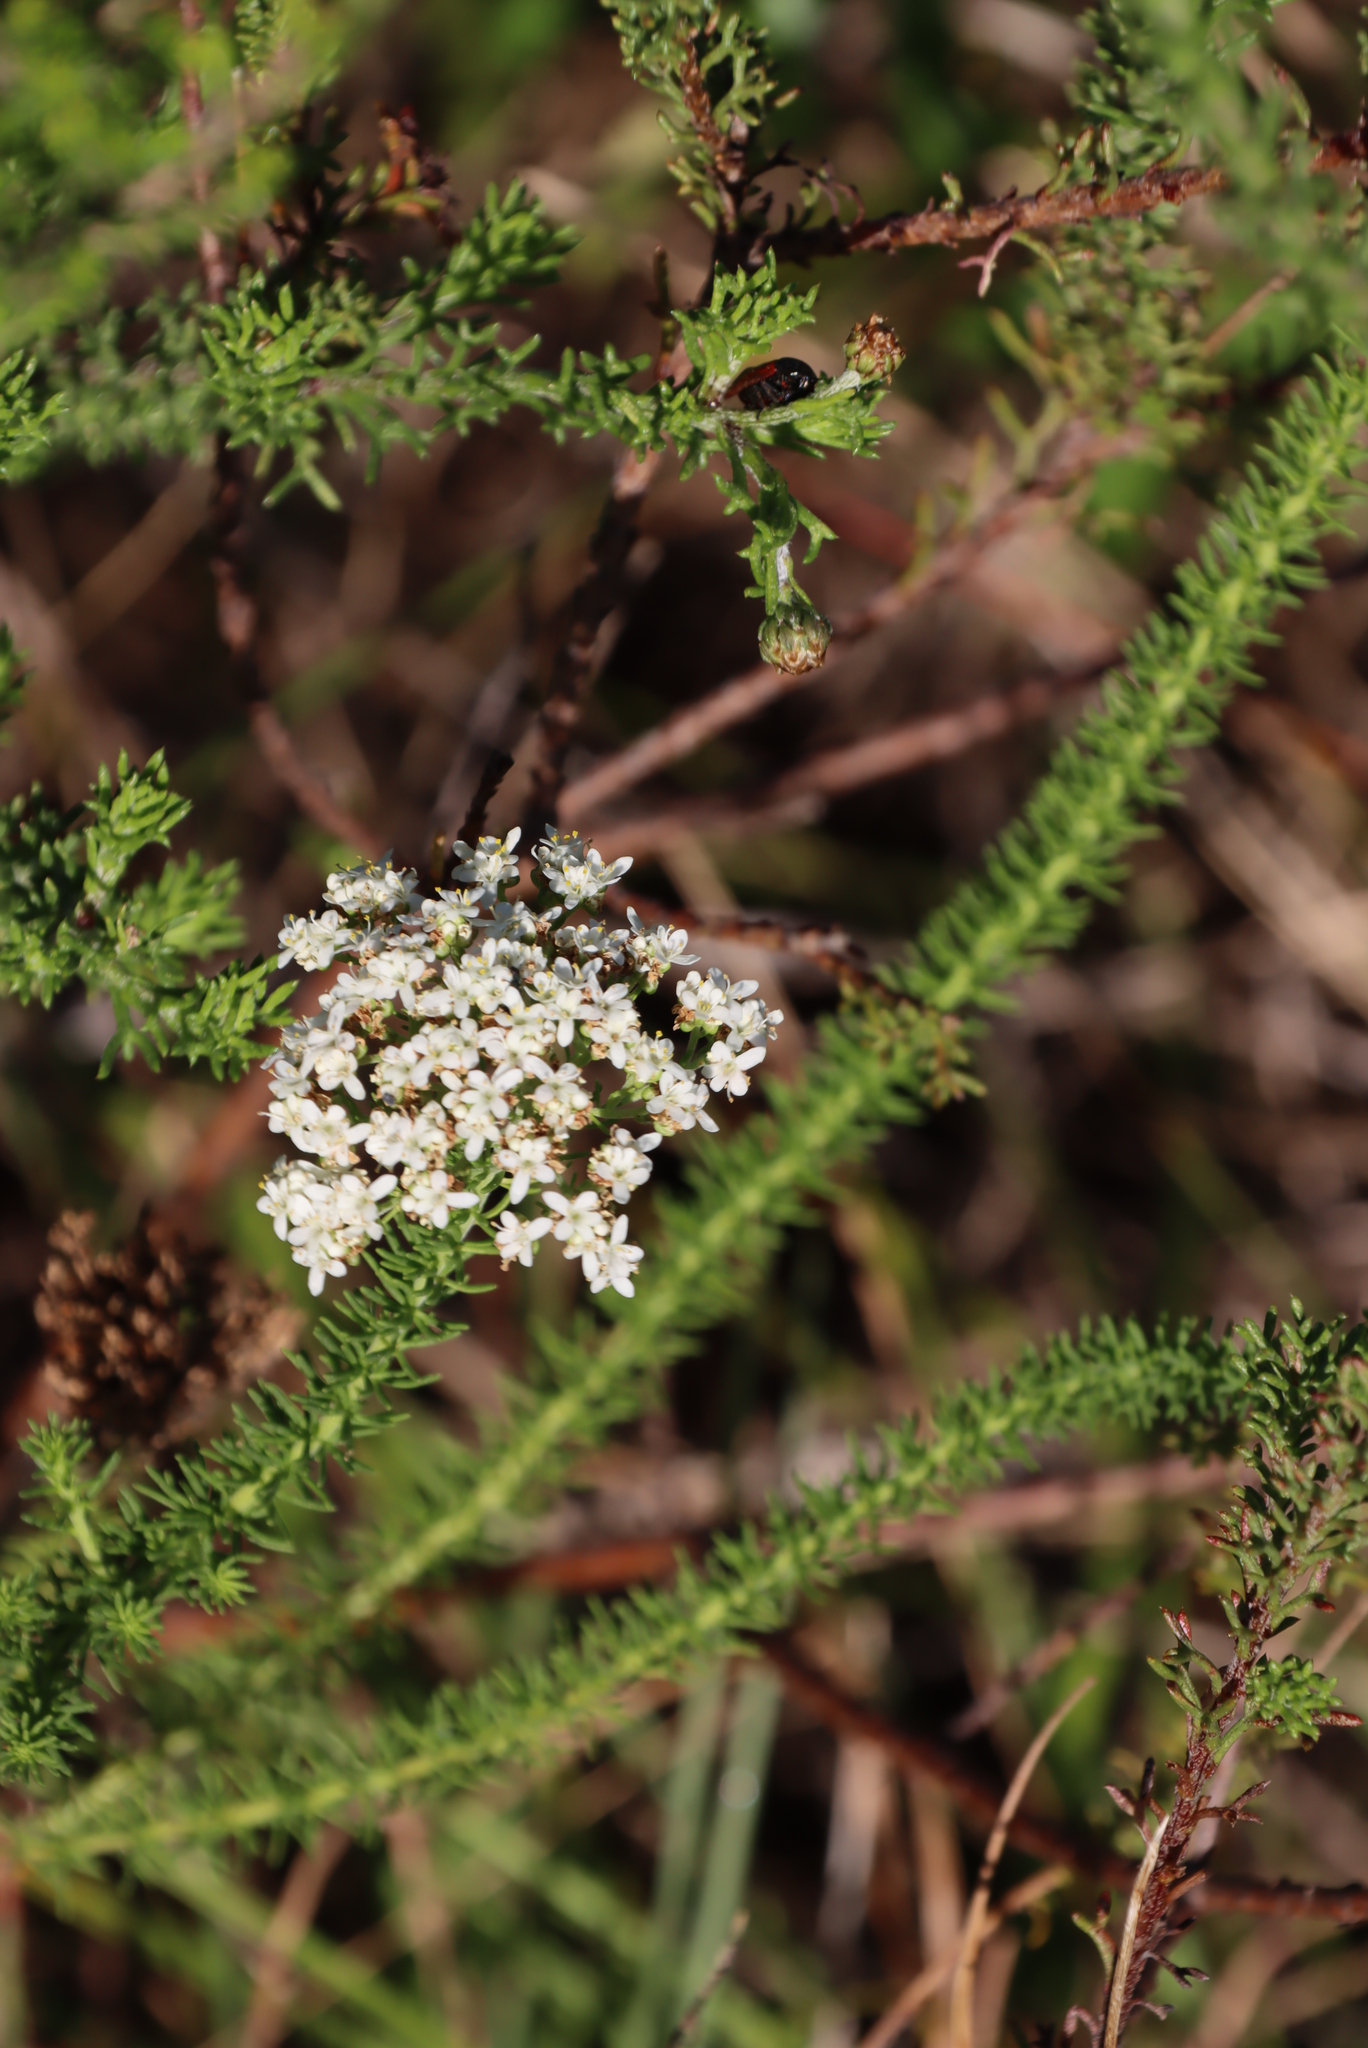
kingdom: Plantae
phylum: Tracheophyta
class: Magnoliopsida
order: Lamiales
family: Scrophulariaceae
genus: Selago
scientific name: Selago corymbosa
